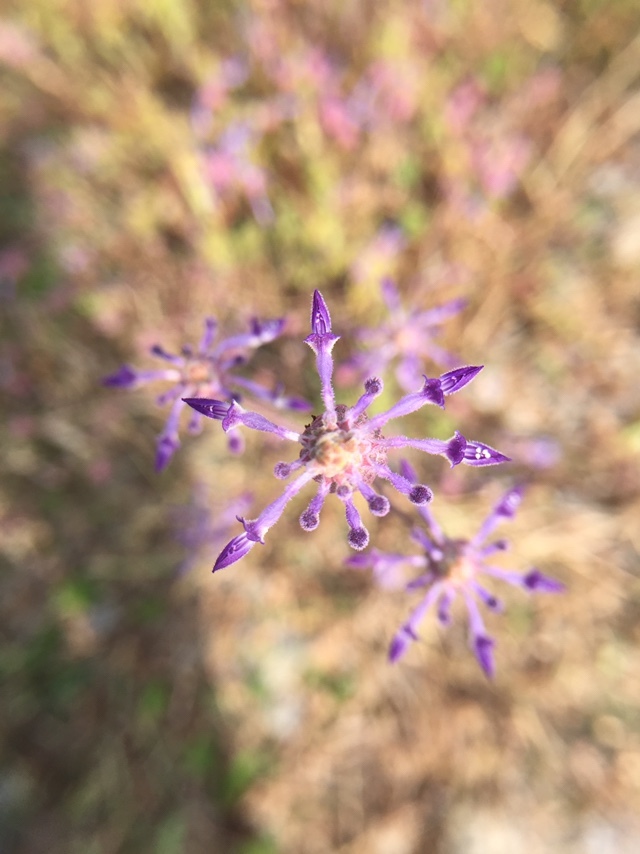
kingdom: Plantae
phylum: Tracheophyta
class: Magnoliopsida
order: Lamiales
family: Lamiaceae
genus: Coleus
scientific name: Coleus strobilifer
